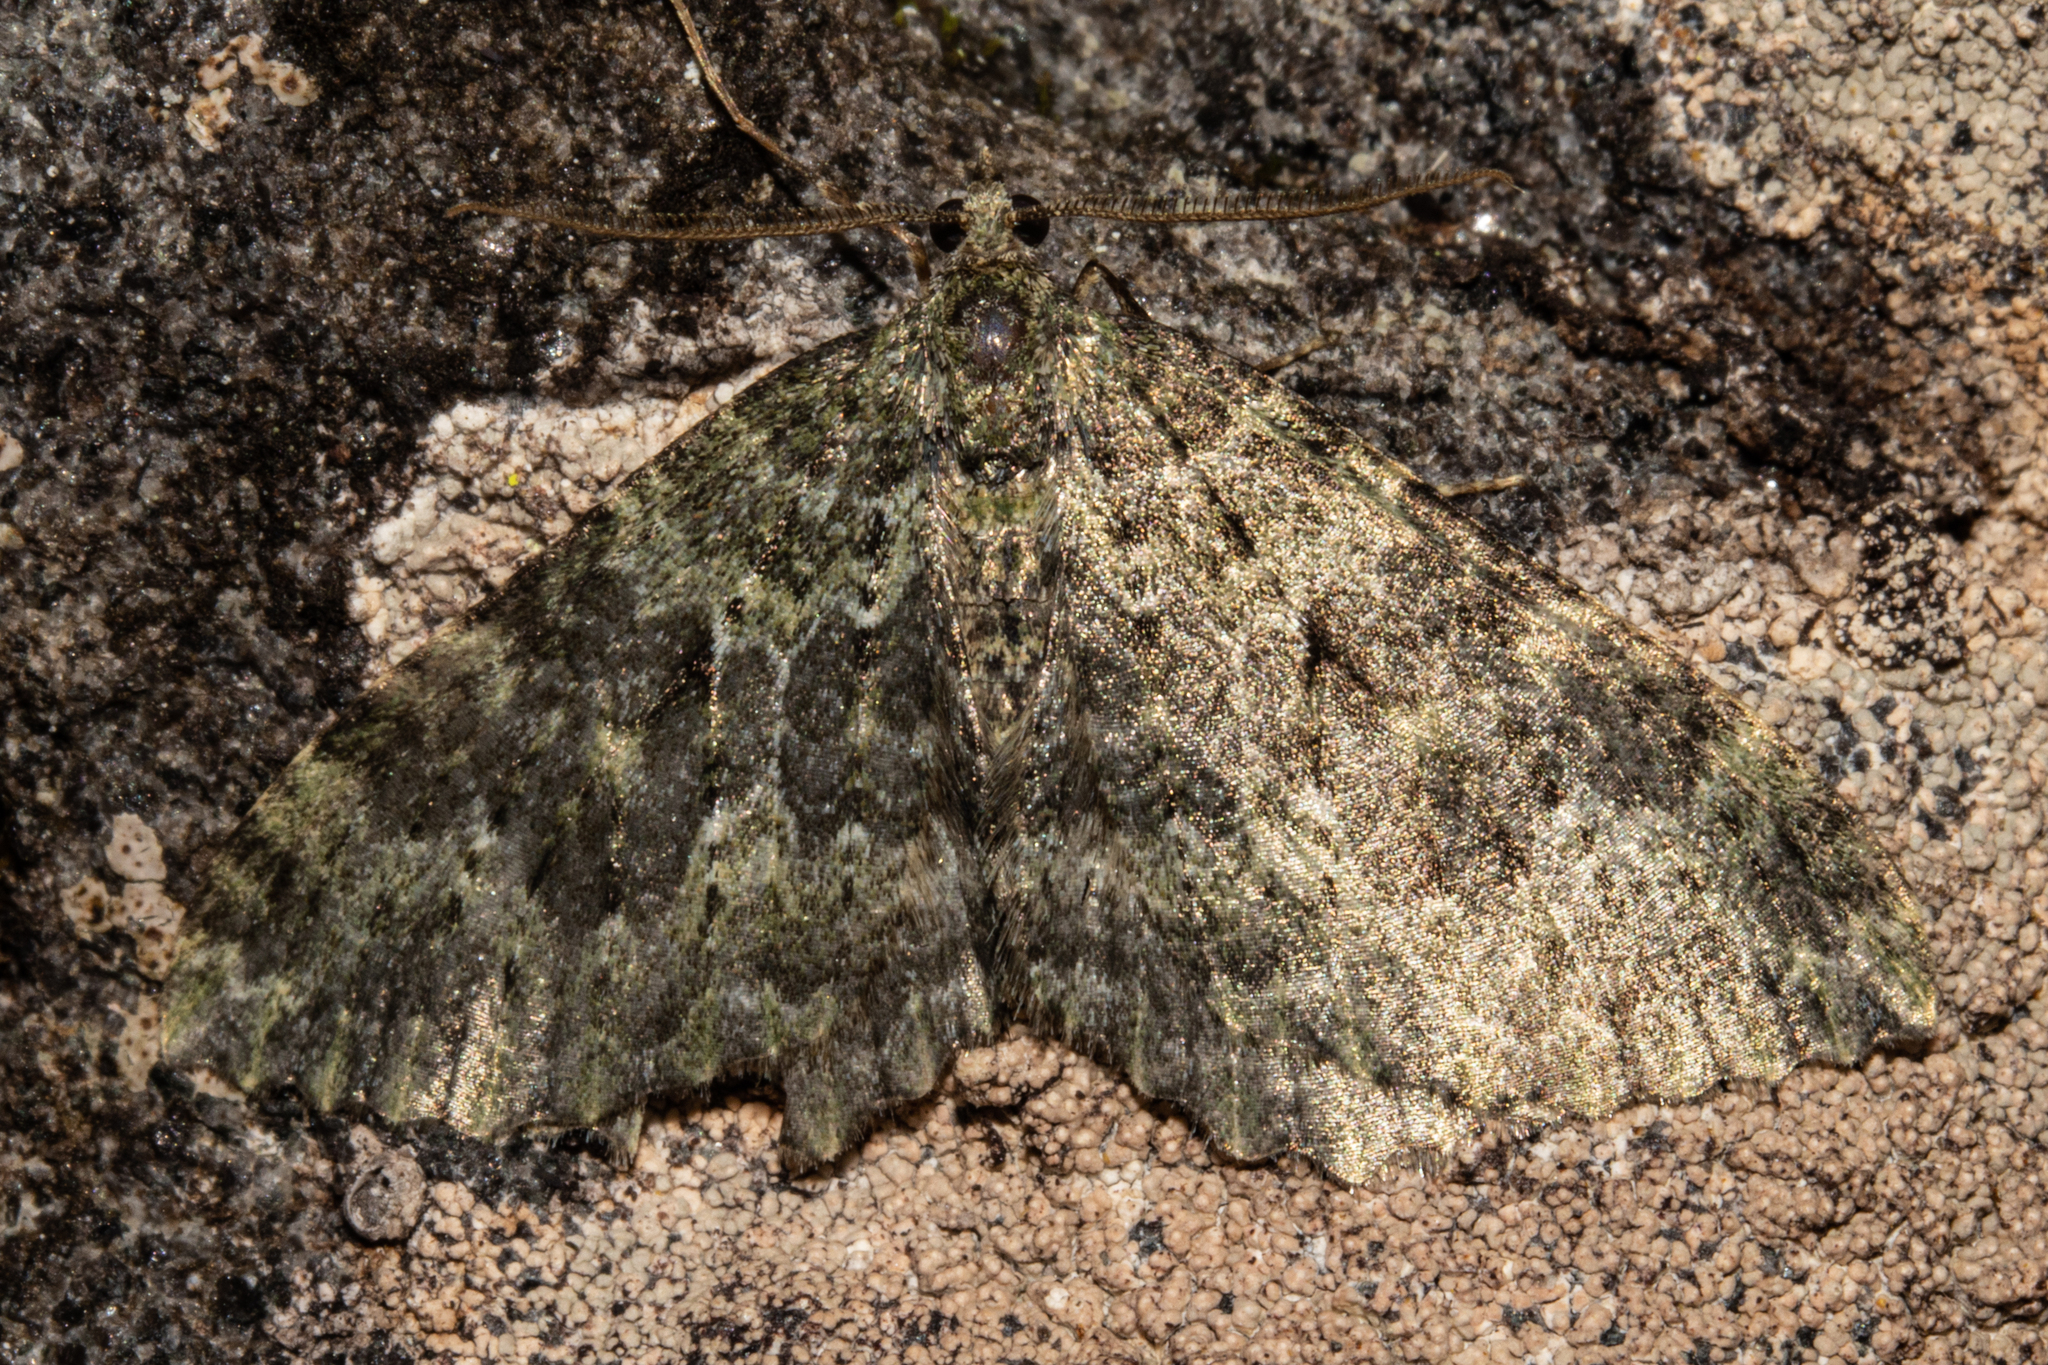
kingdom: Animalia
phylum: Arthropoda
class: Insecta
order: Lepidoptera
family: Geometridae
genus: Austrocidaria
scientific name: Austrocidaria umbrosa
